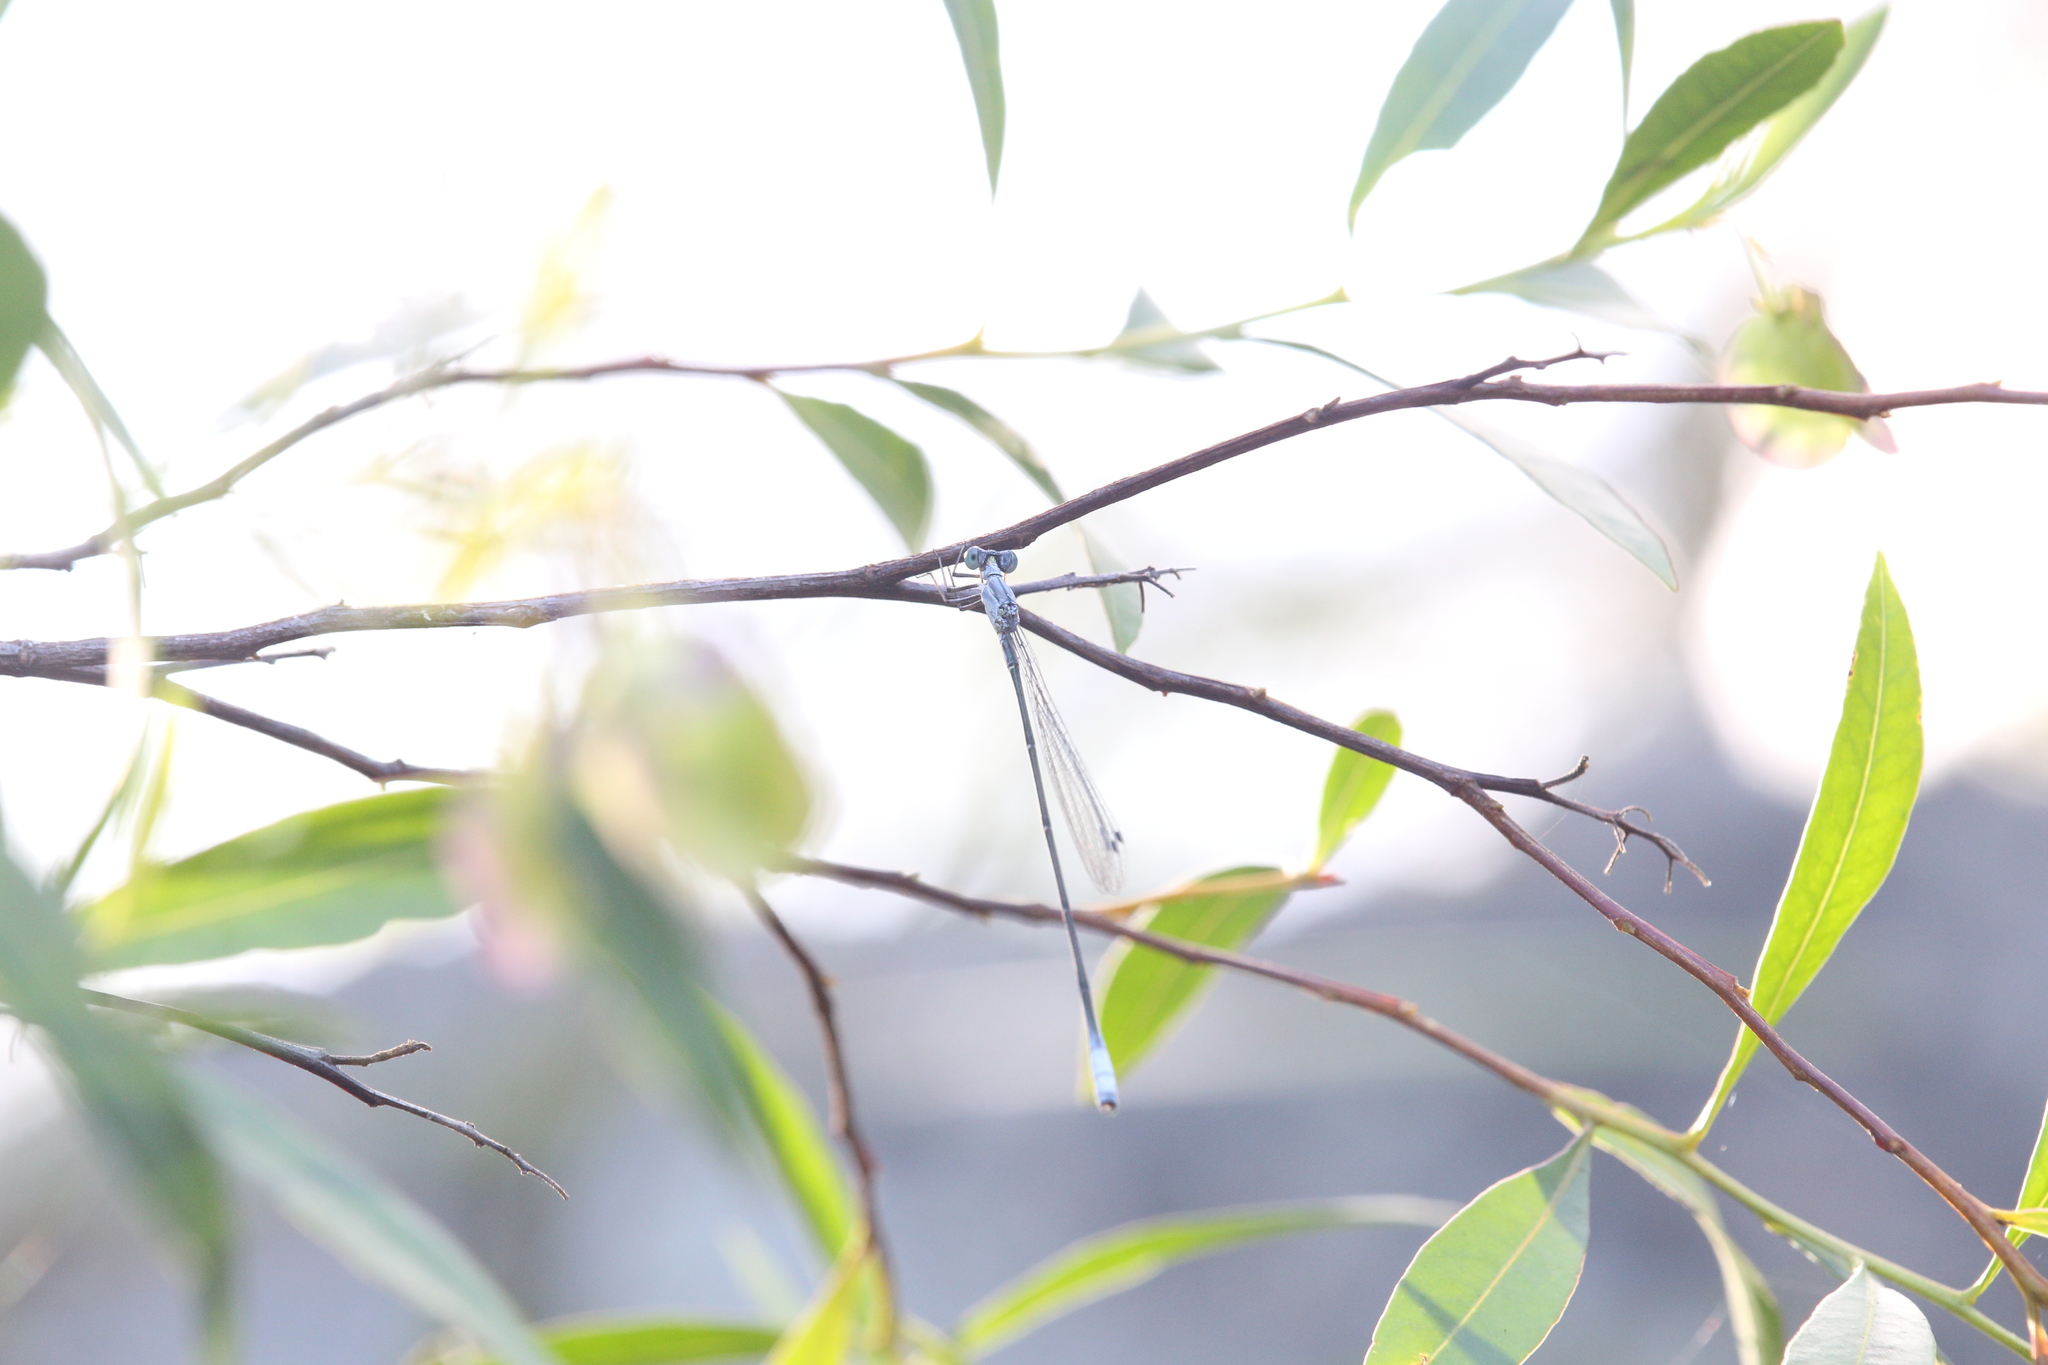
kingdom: Animalia
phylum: Arthropoda
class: Insecta
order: Odonata
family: Isostictidae
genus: Labidiosticta
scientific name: Labidiosticta vallisi
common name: Large wiretail
